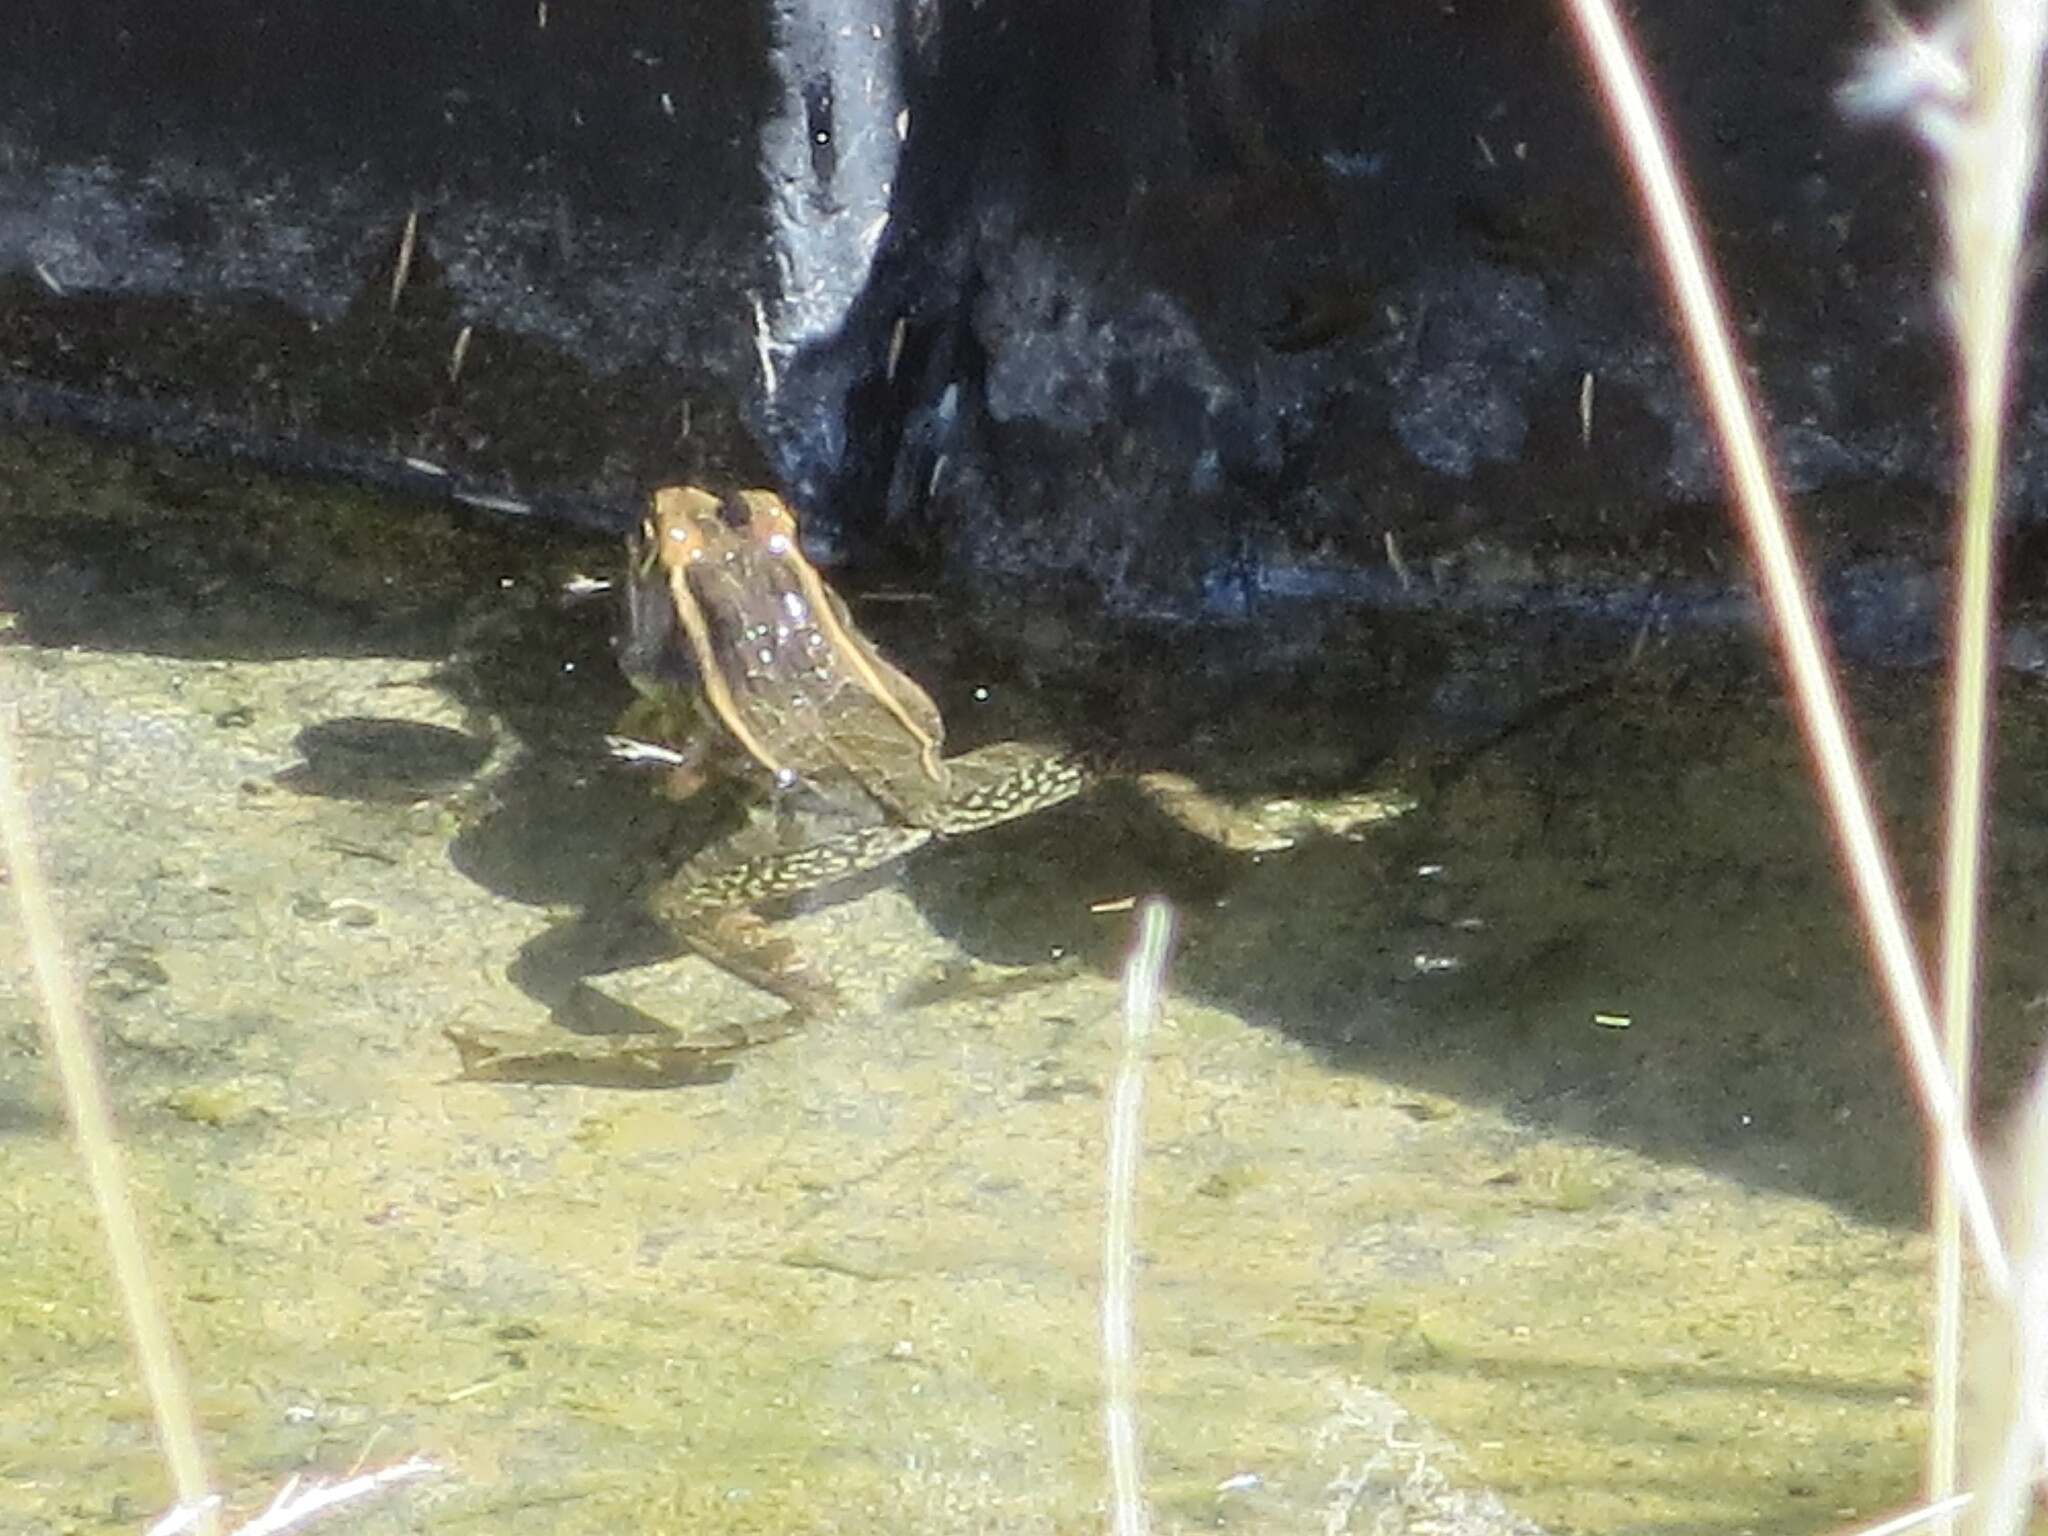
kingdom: Animalia
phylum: Chordata
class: Amphibia
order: Anura
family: Ranidae
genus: Lithobates
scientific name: Lithobates berlandieri
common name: Rio grande leopard frog
